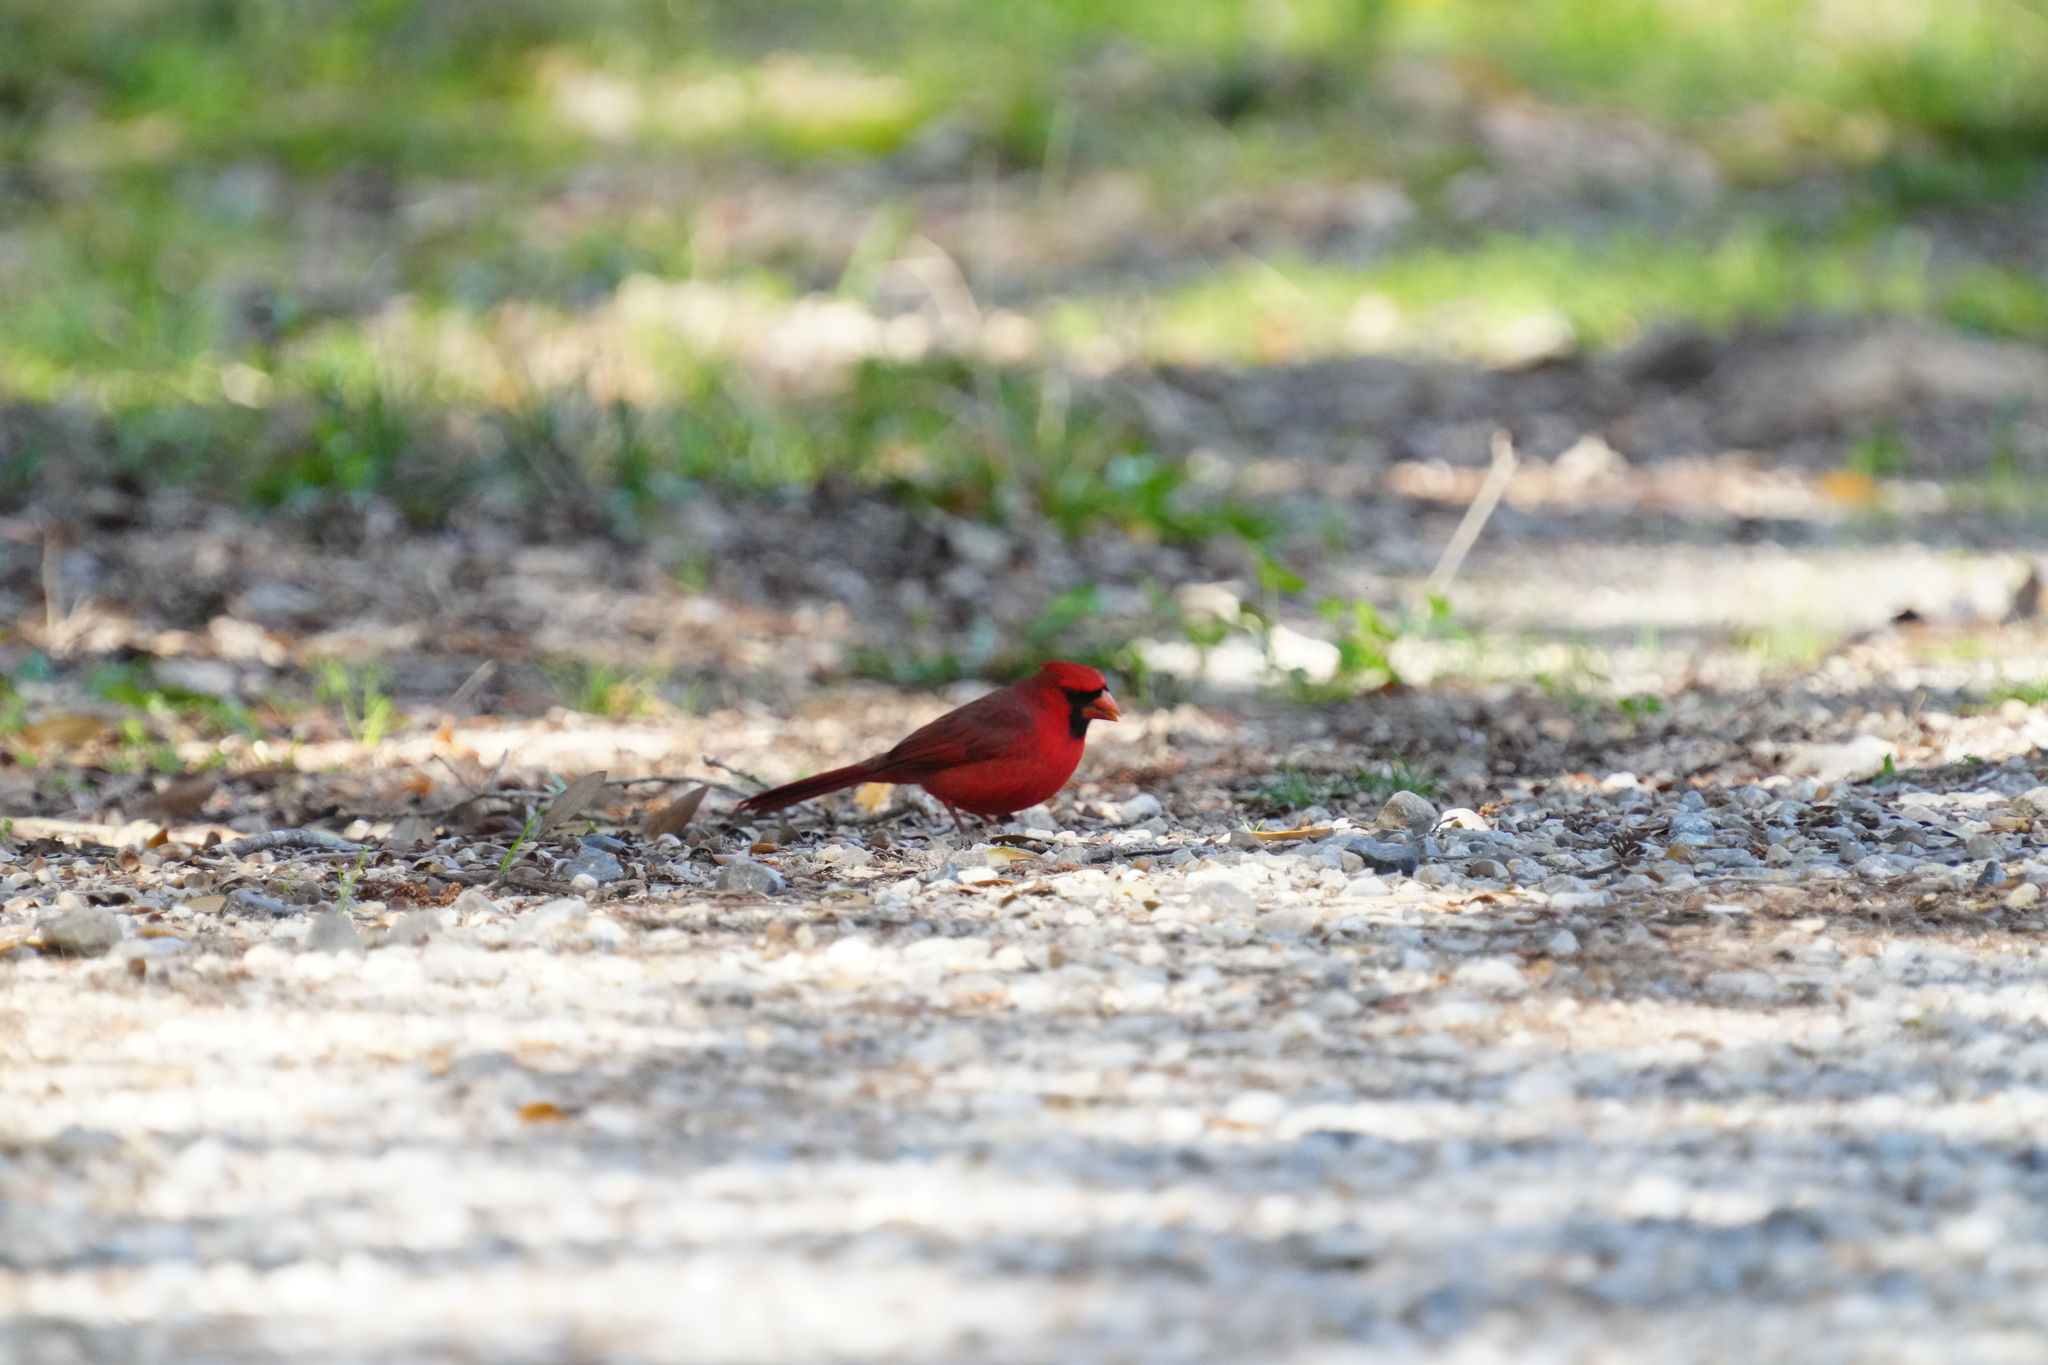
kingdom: Animalia
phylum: Chordata
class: Aves
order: Passeriformes
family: Cardinalidae
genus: Cardinalis
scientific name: Cardinalis cardinalis
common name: Northern cardinal
